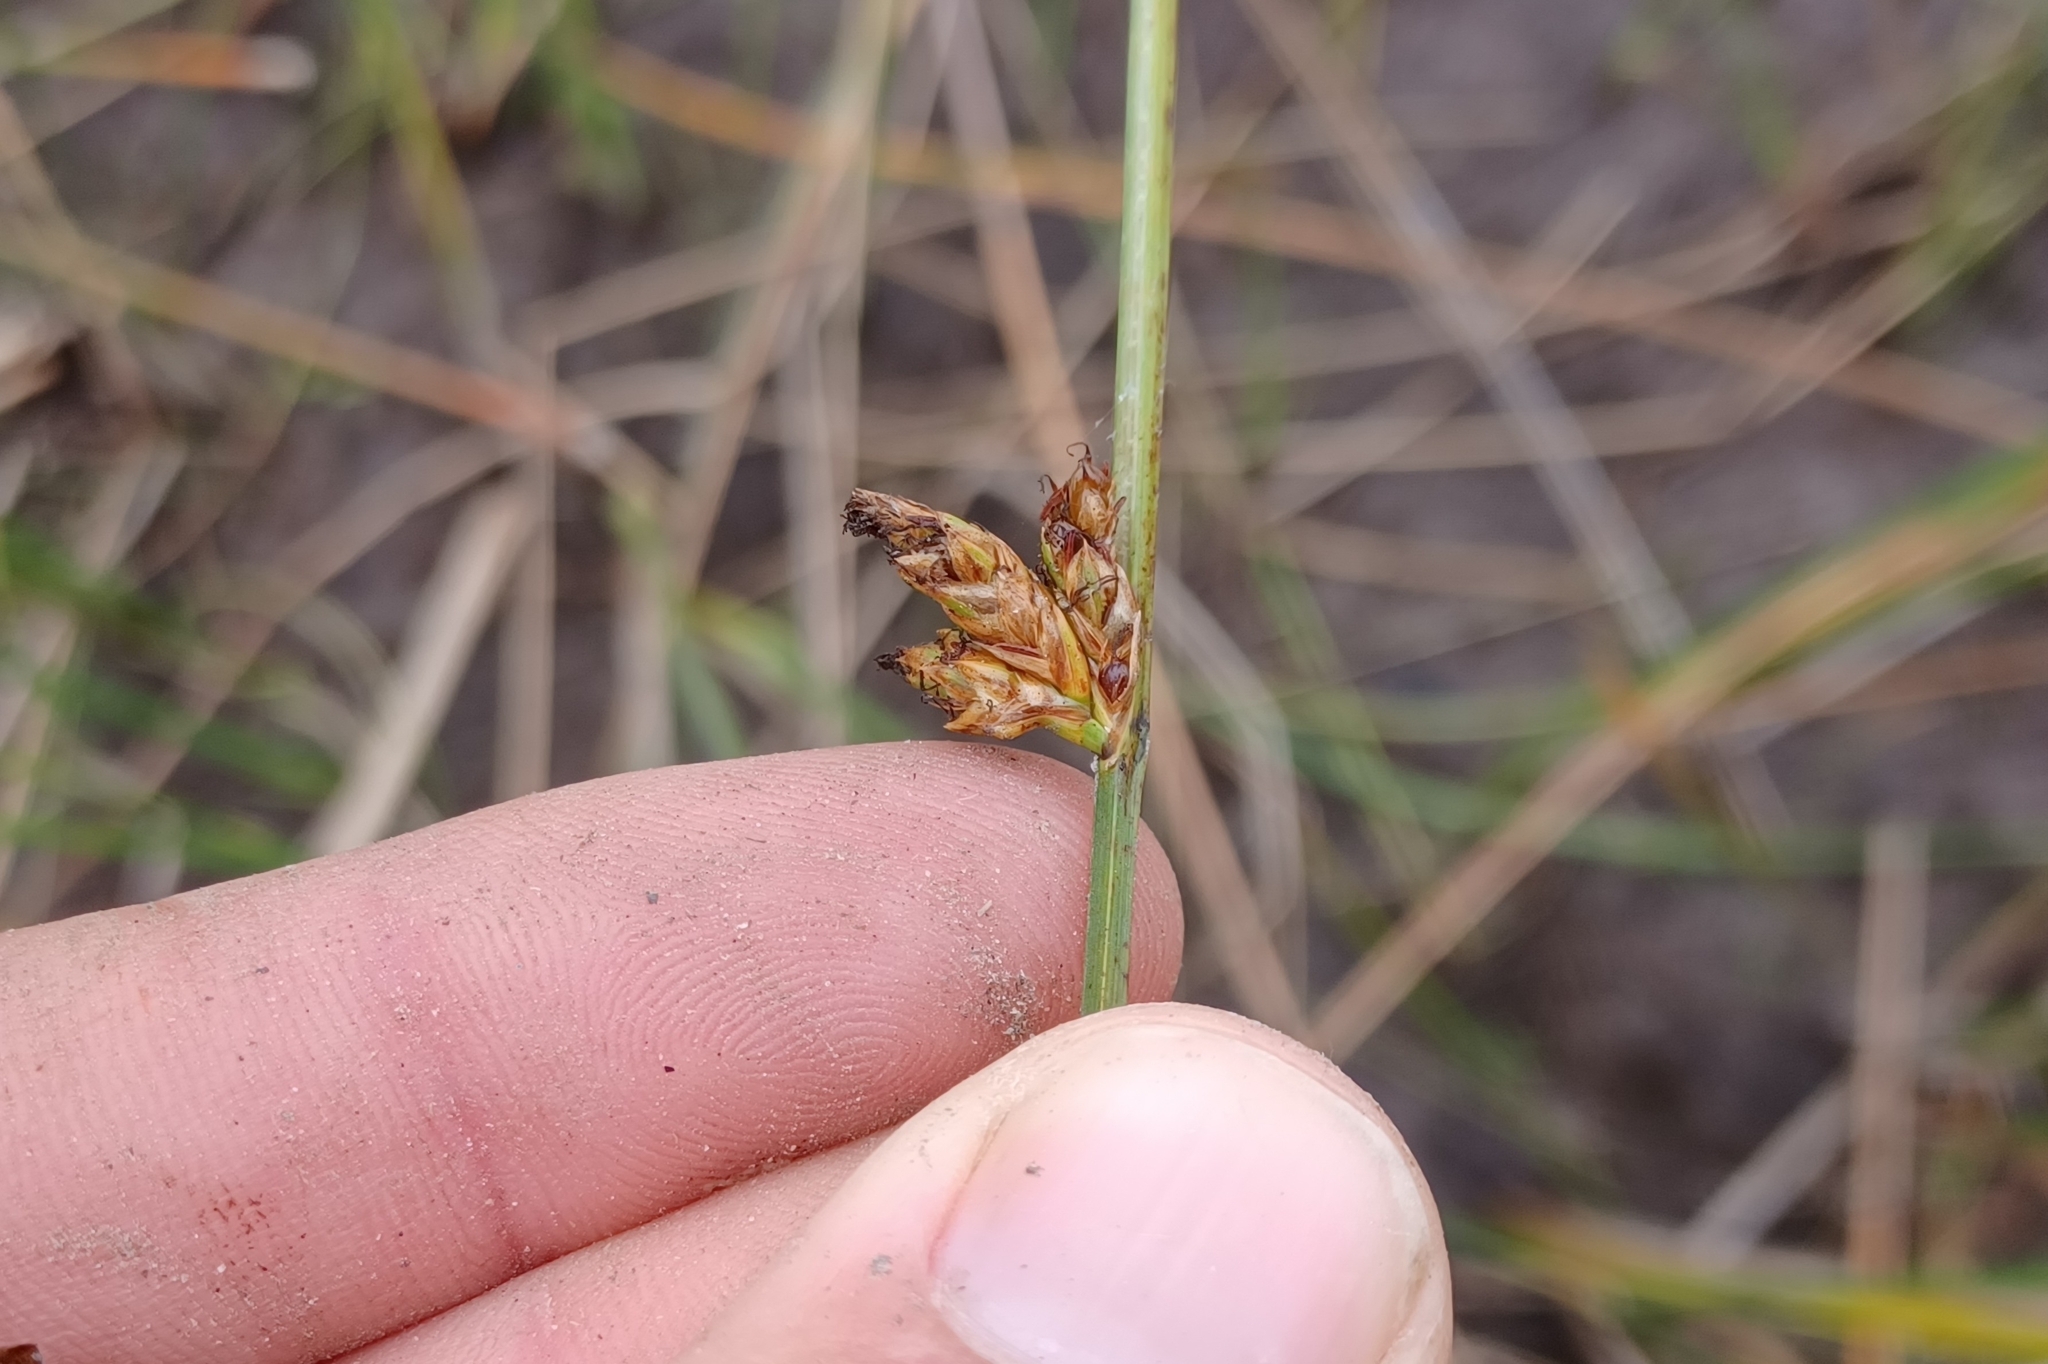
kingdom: Plantae
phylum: Tracheophyta
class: Liliopsida
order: Poales
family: Cyperaceae
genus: Schoenoplectus
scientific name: Schoenoplectus torreyi
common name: Torrey's bulrush
